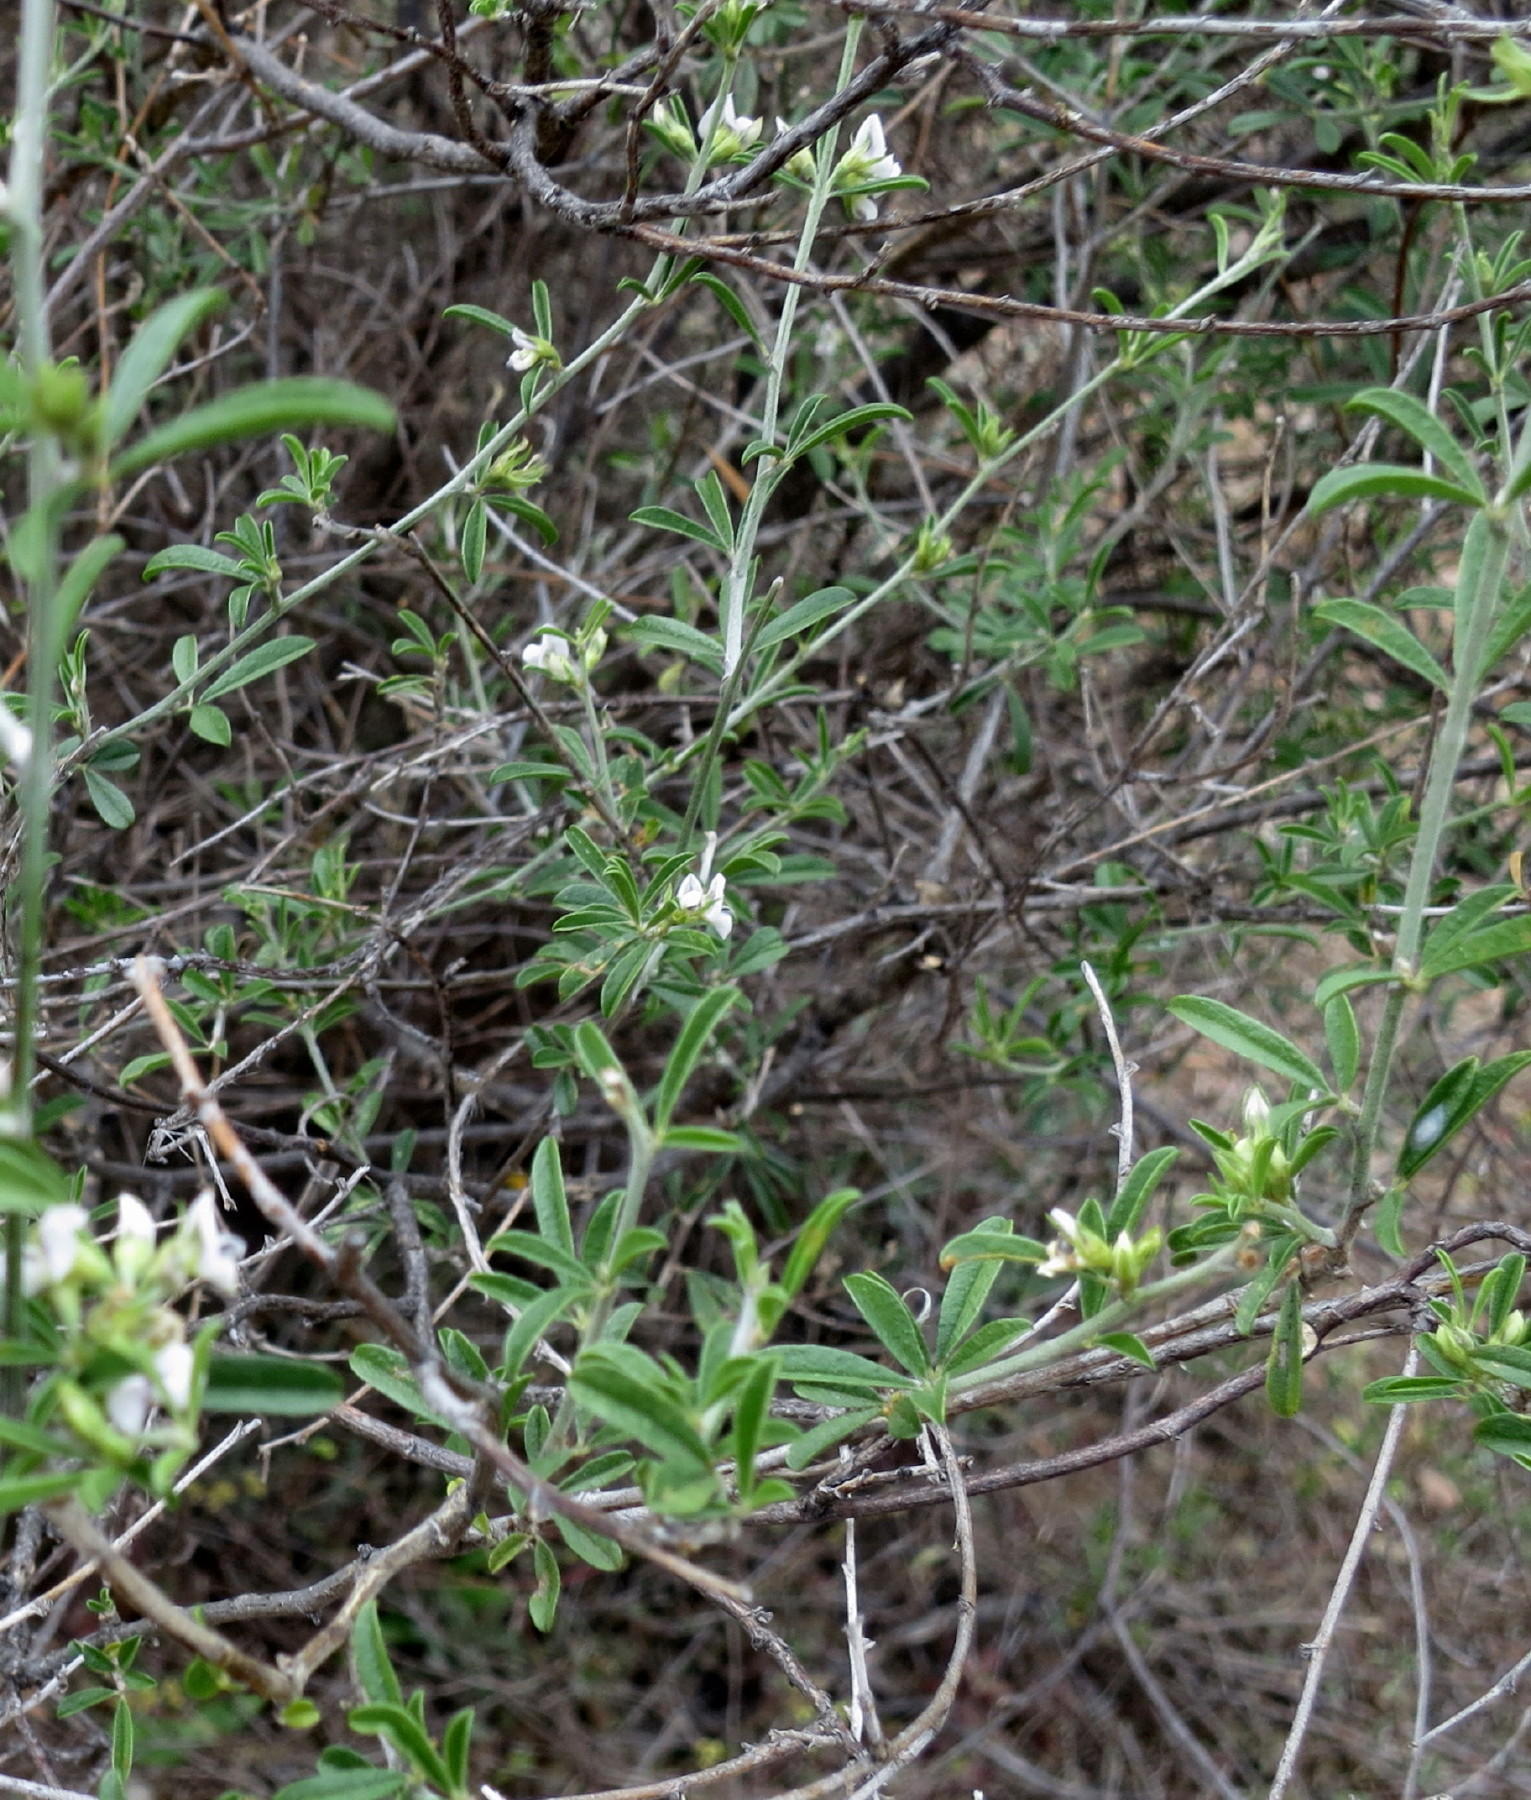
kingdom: Plantae
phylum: Tracheophyta
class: Magnoliopsida
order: Fabales
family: Fabaceae
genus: Psoralea
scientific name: Psoralea spissa
